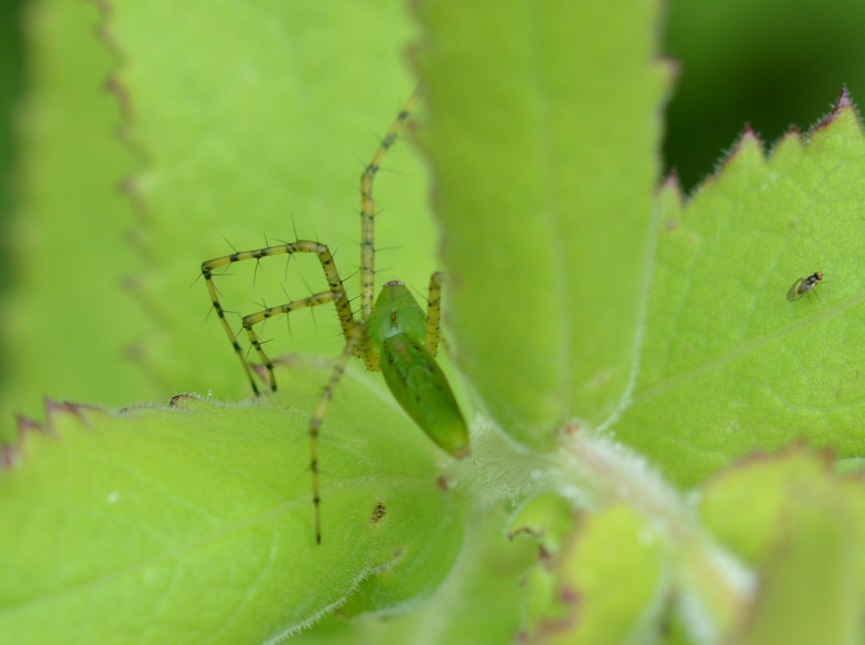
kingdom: Animalia
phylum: Arthropoda
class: Arachnida
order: Araneae
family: Oxyopidae
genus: Peucetia
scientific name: Peucetia viridans
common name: Lynx spiders
